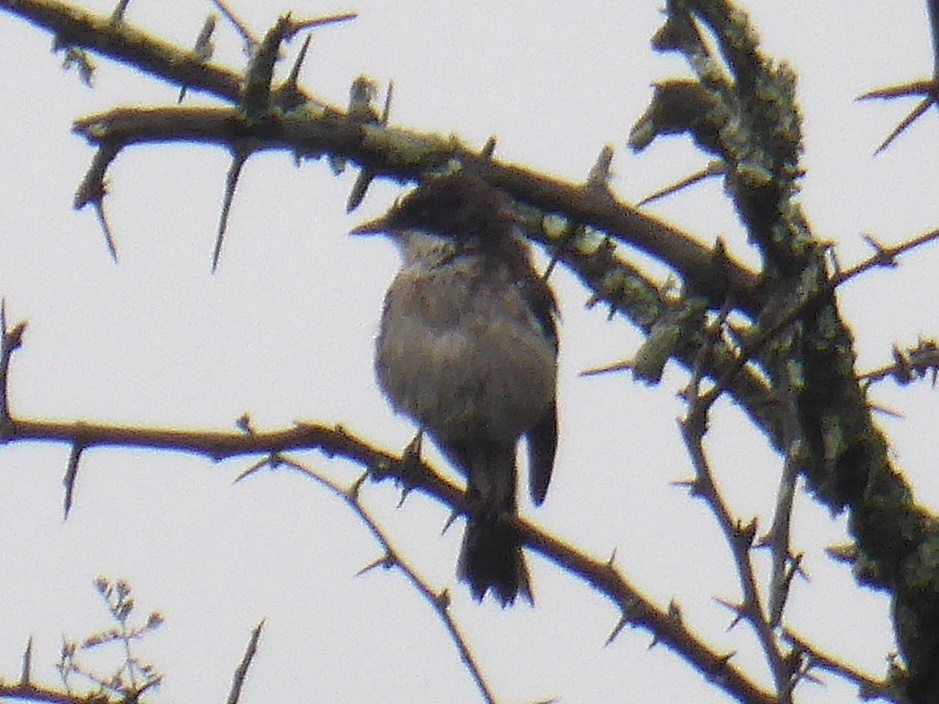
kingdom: Animalia
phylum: Chordata
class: Aves
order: Passeriformes
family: Muscicapidae
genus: Sigelus
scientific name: Sigelus silens
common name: Fiscal flycatcher
